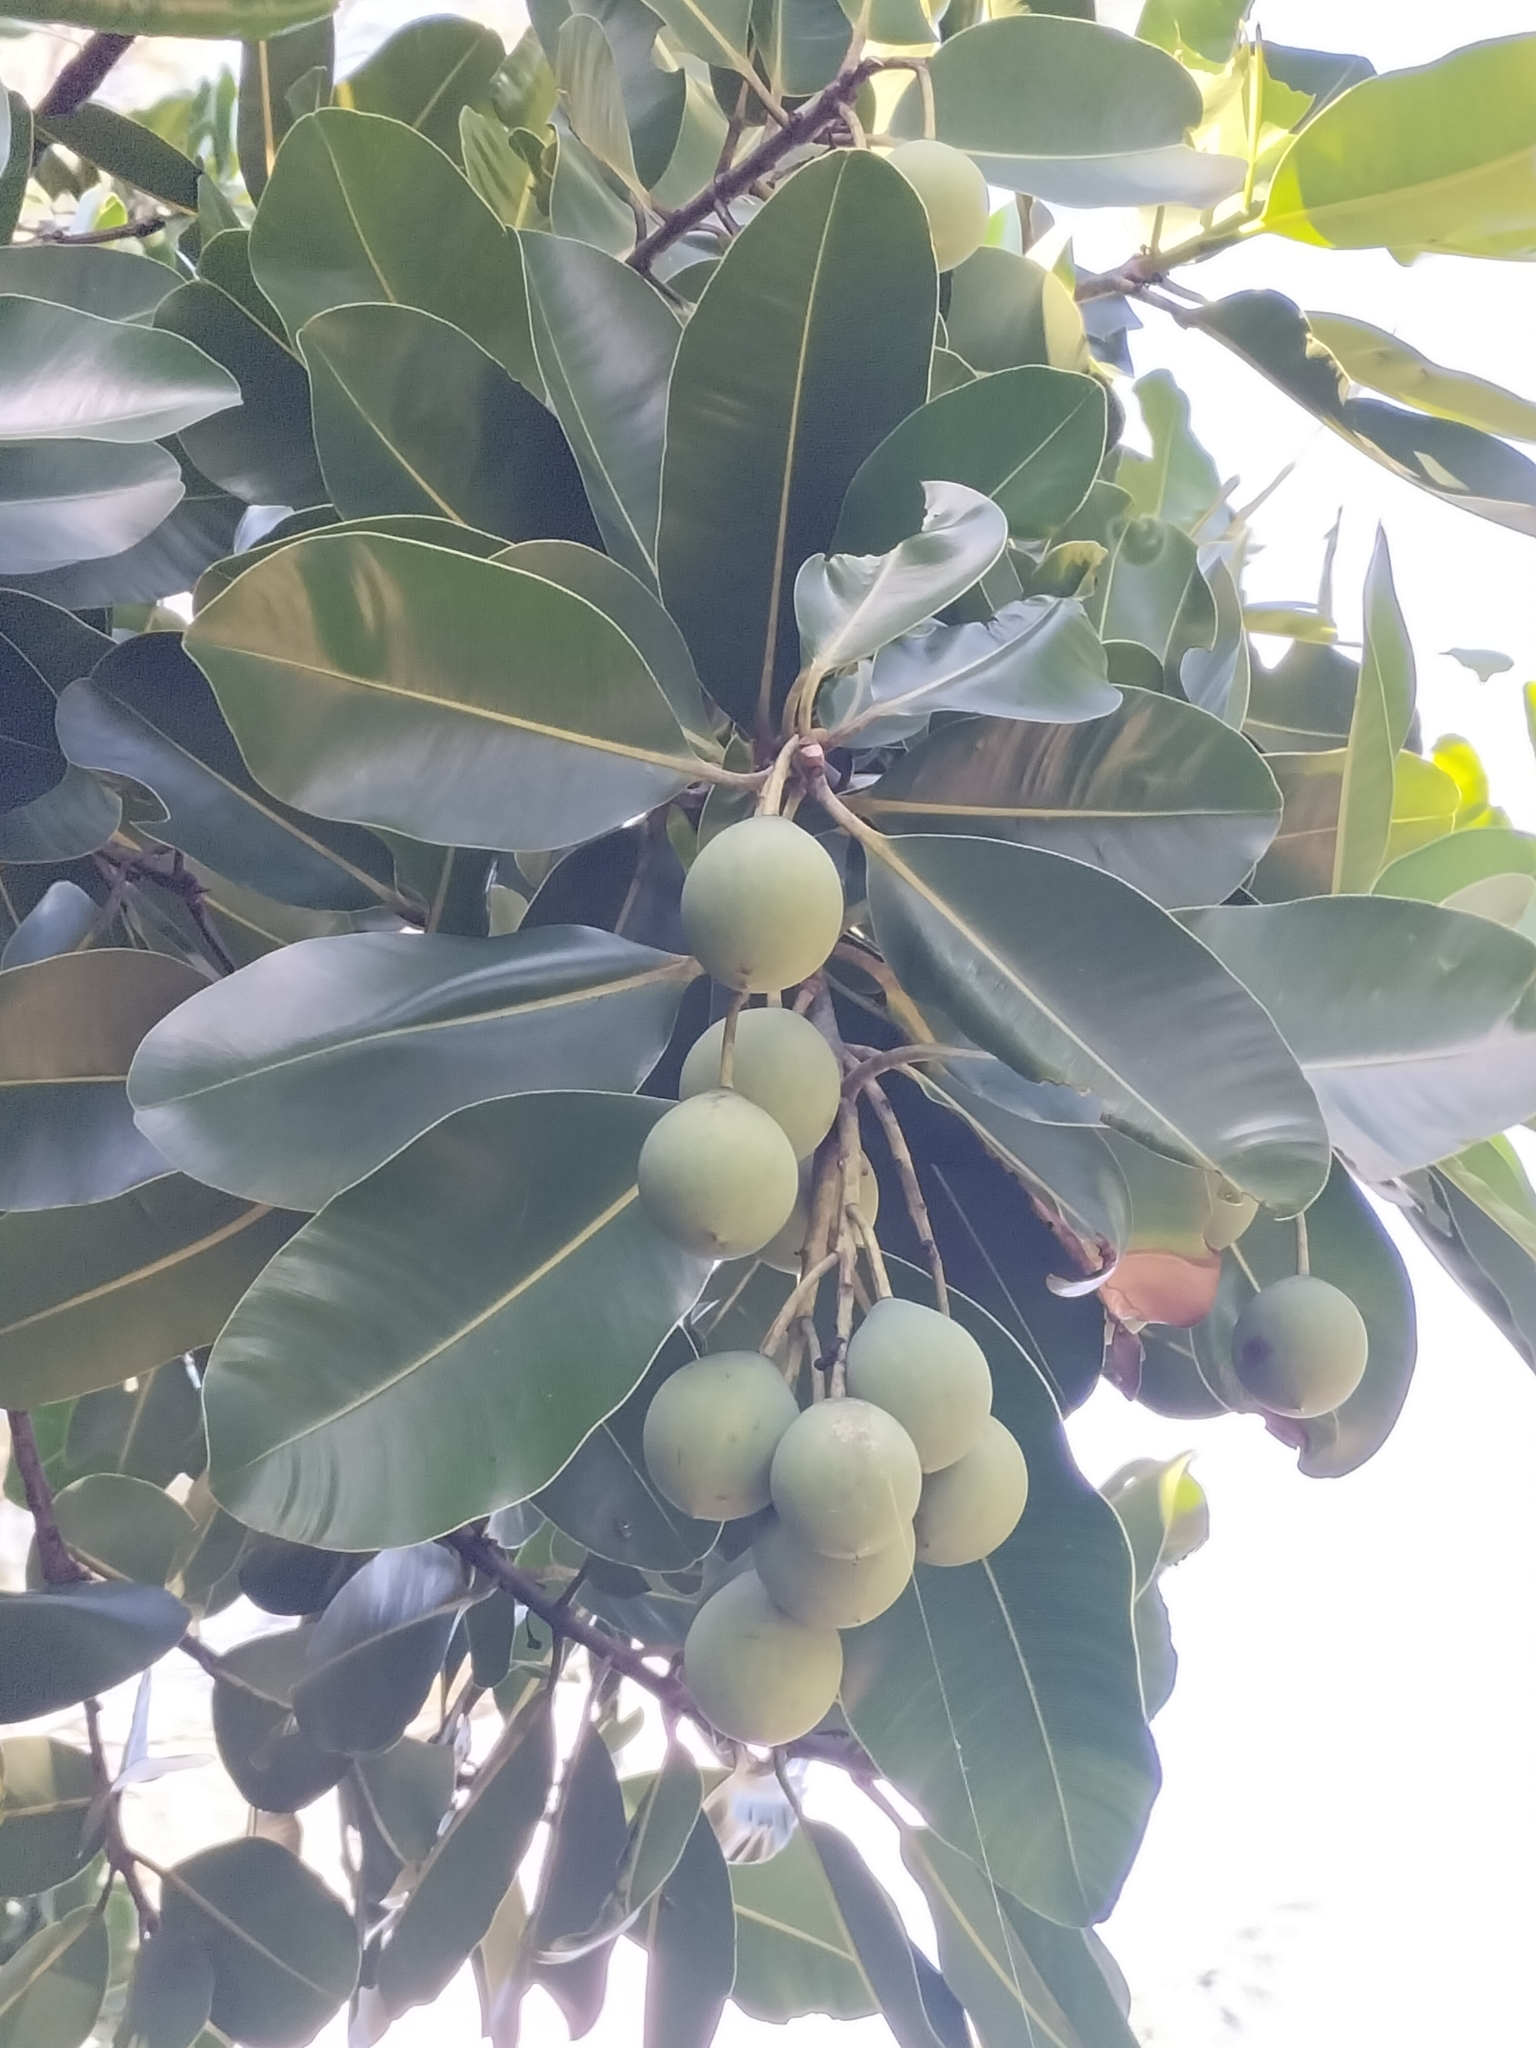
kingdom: Plantae
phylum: Tracheophyta
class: Magnoliopsida
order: Malpighiales
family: Calophyllaceae
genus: Calophyllum
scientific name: Calophyllum inophyllum
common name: Alexandrian laurel
